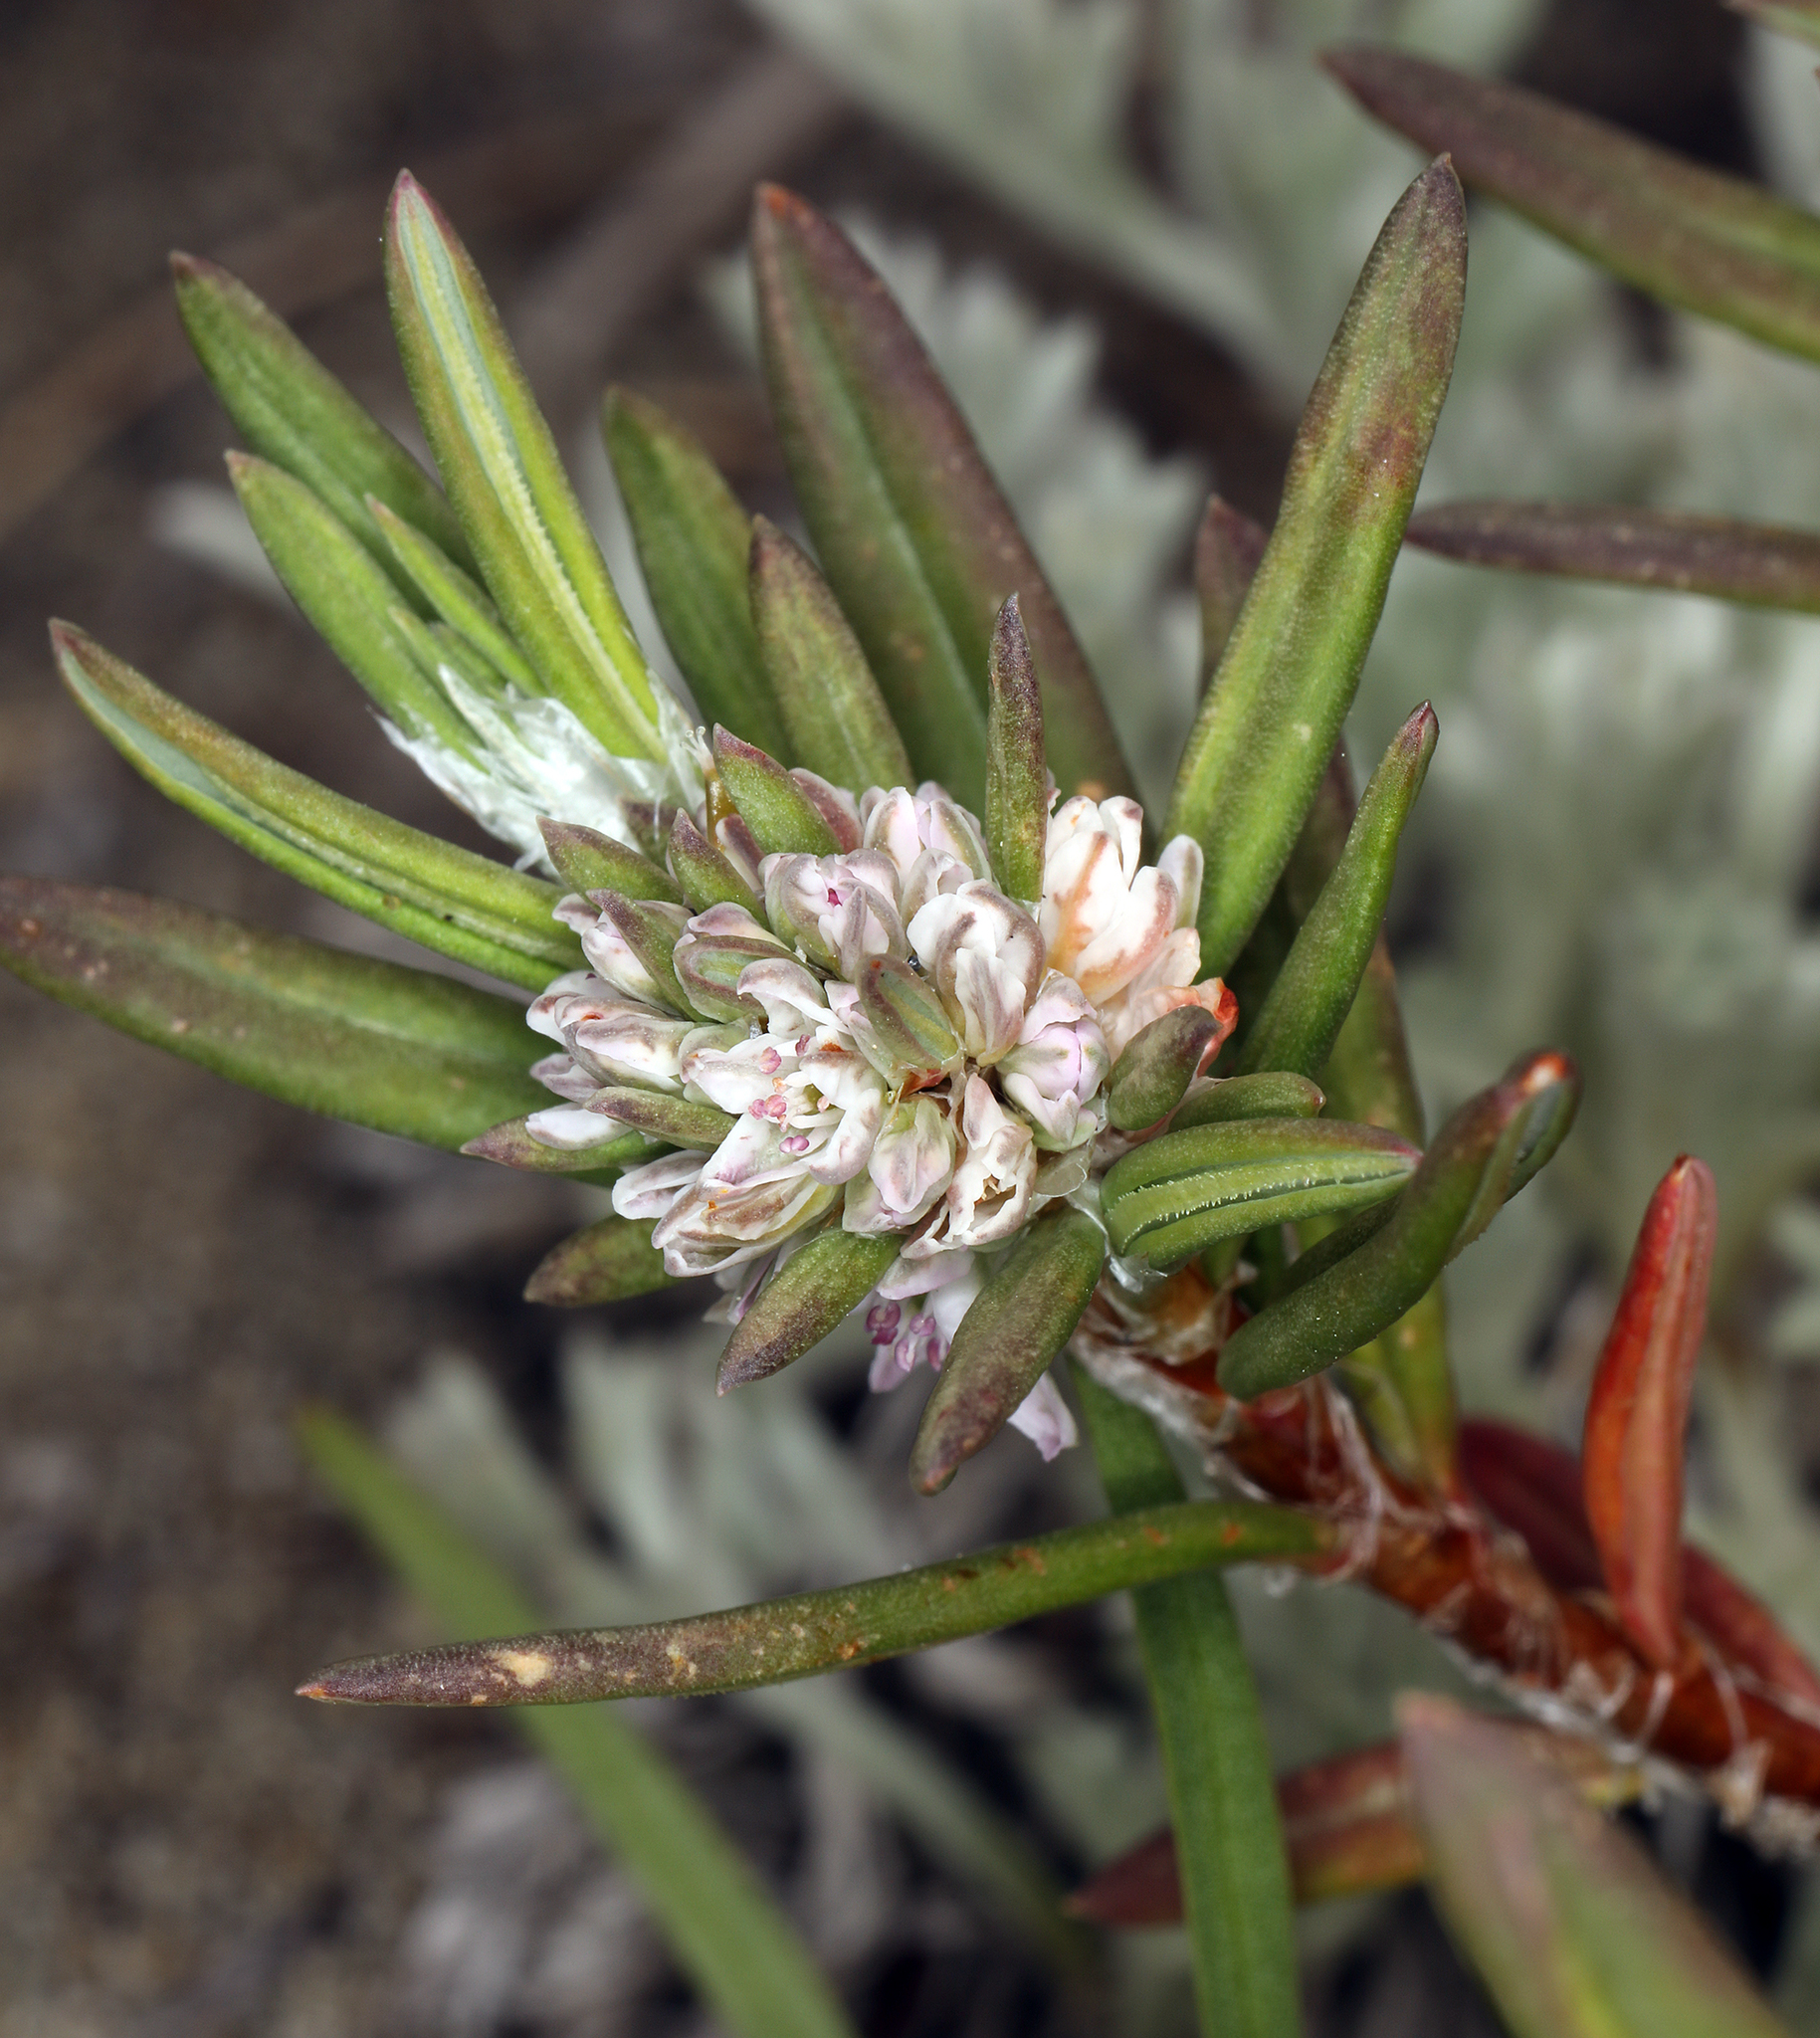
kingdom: Plantae
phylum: Tracheophyta
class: Magnoliopsida
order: Caryophyllales
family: Polygonaceae
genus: Polygonum
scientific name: Polygonum paronychia
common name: Dune knotweed
